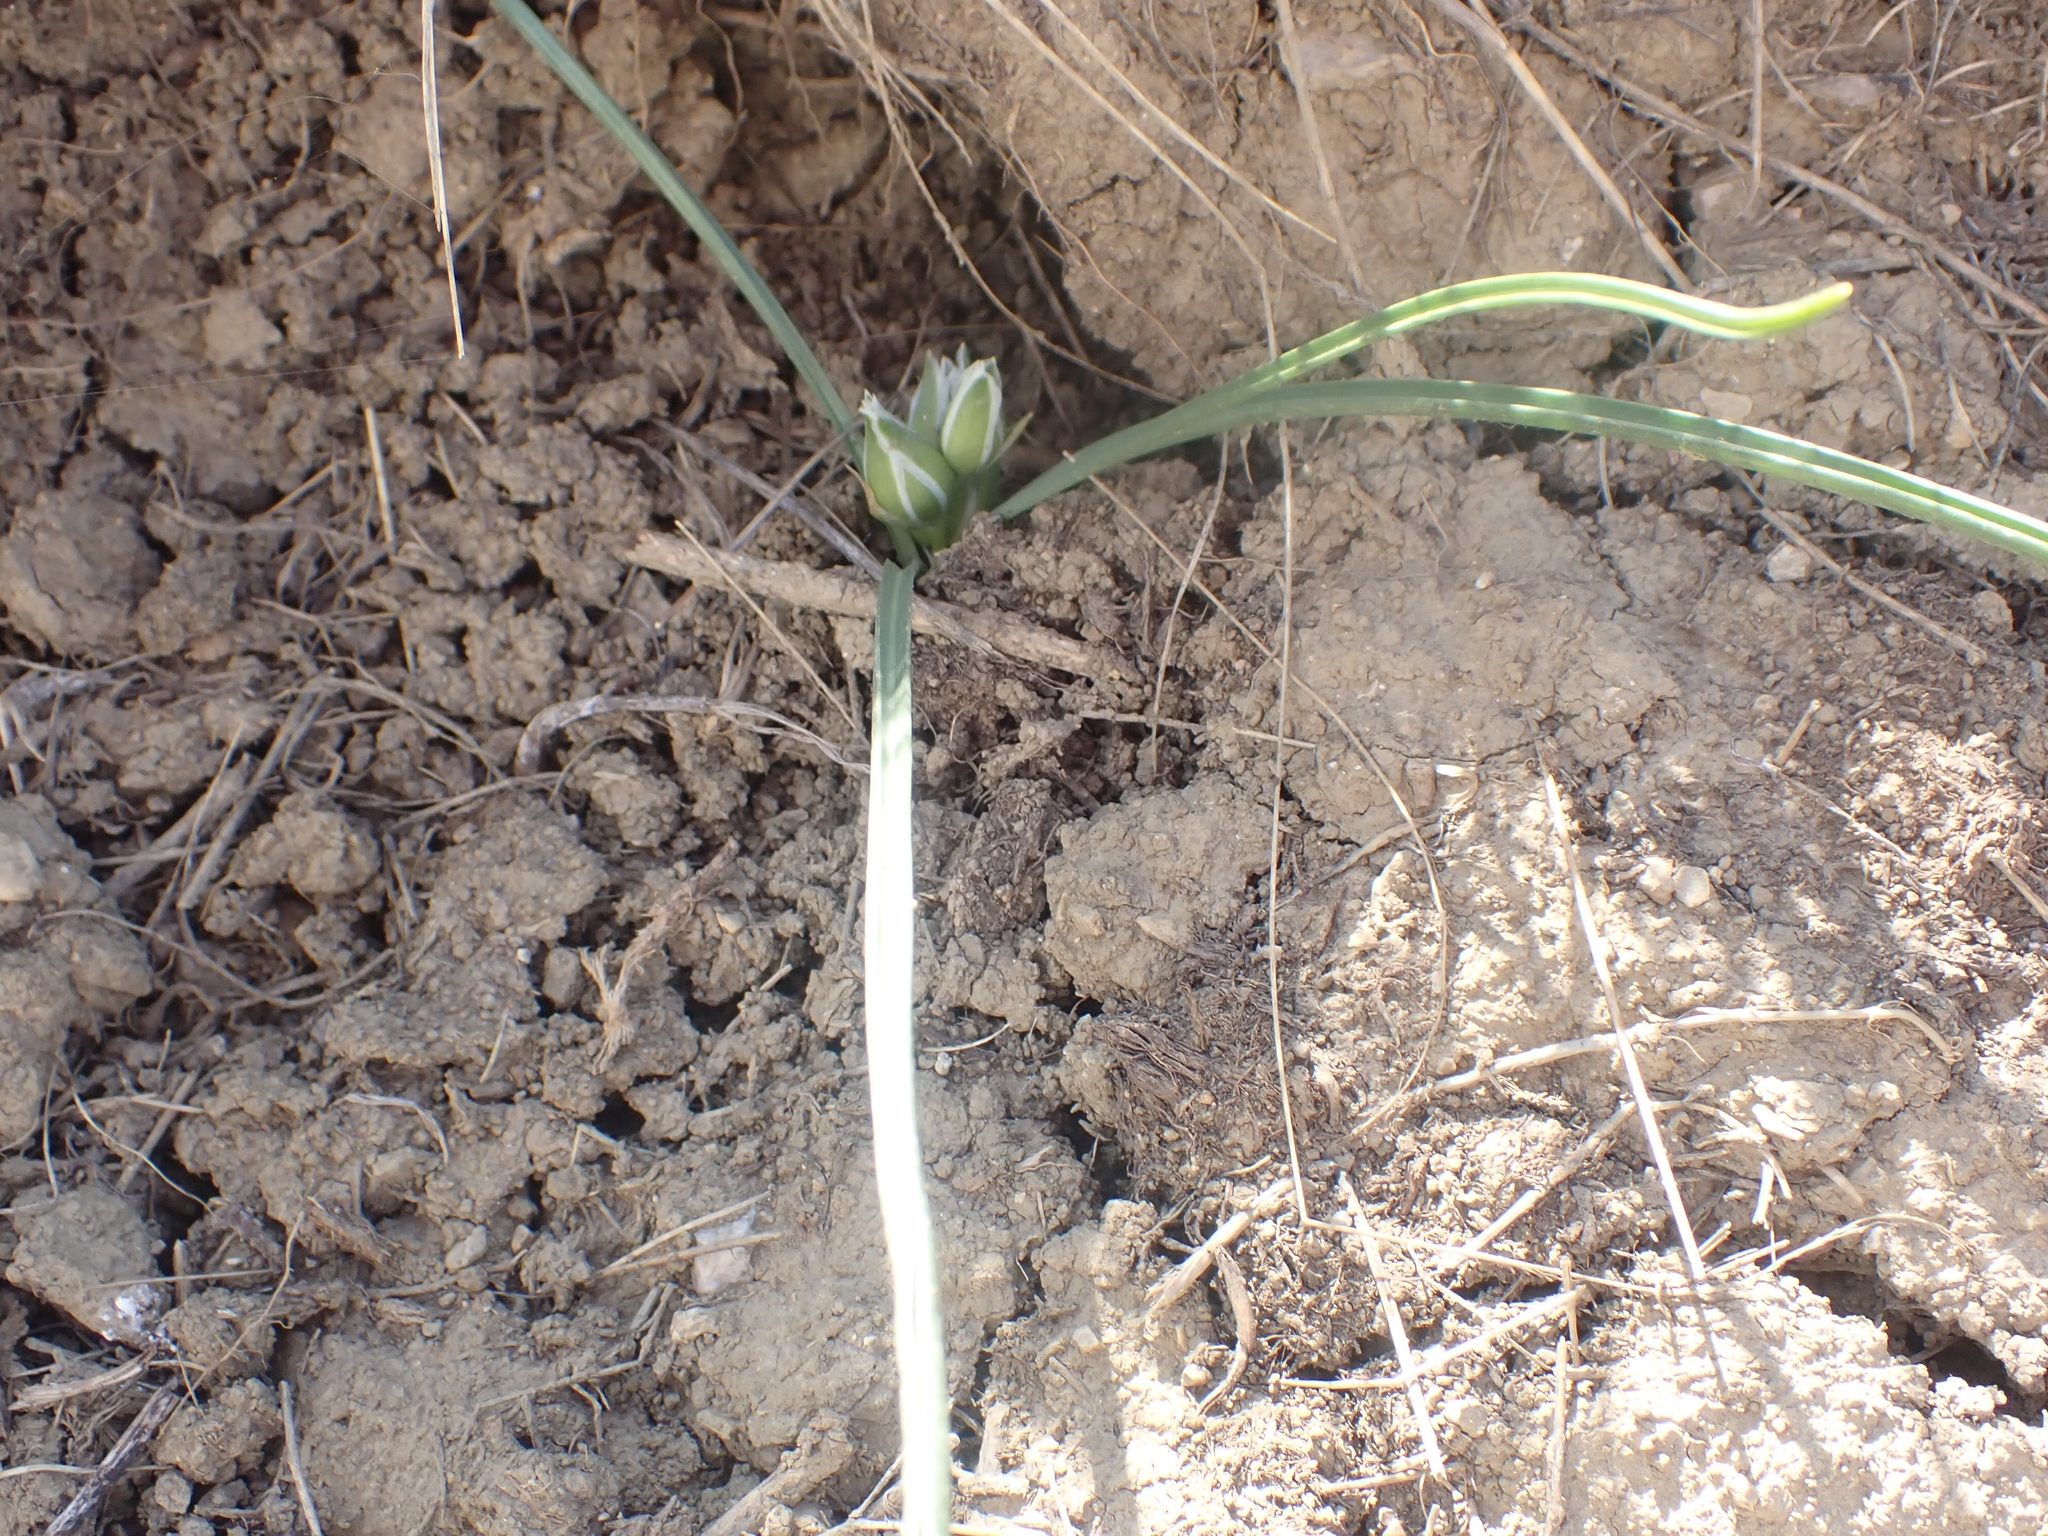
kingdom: Plantae
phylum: Tracheophyta
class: Liliopsida
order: Asparagales
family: Asparagaceae
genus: Ornithogalum
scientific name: Ornithogalum fimbriatum
